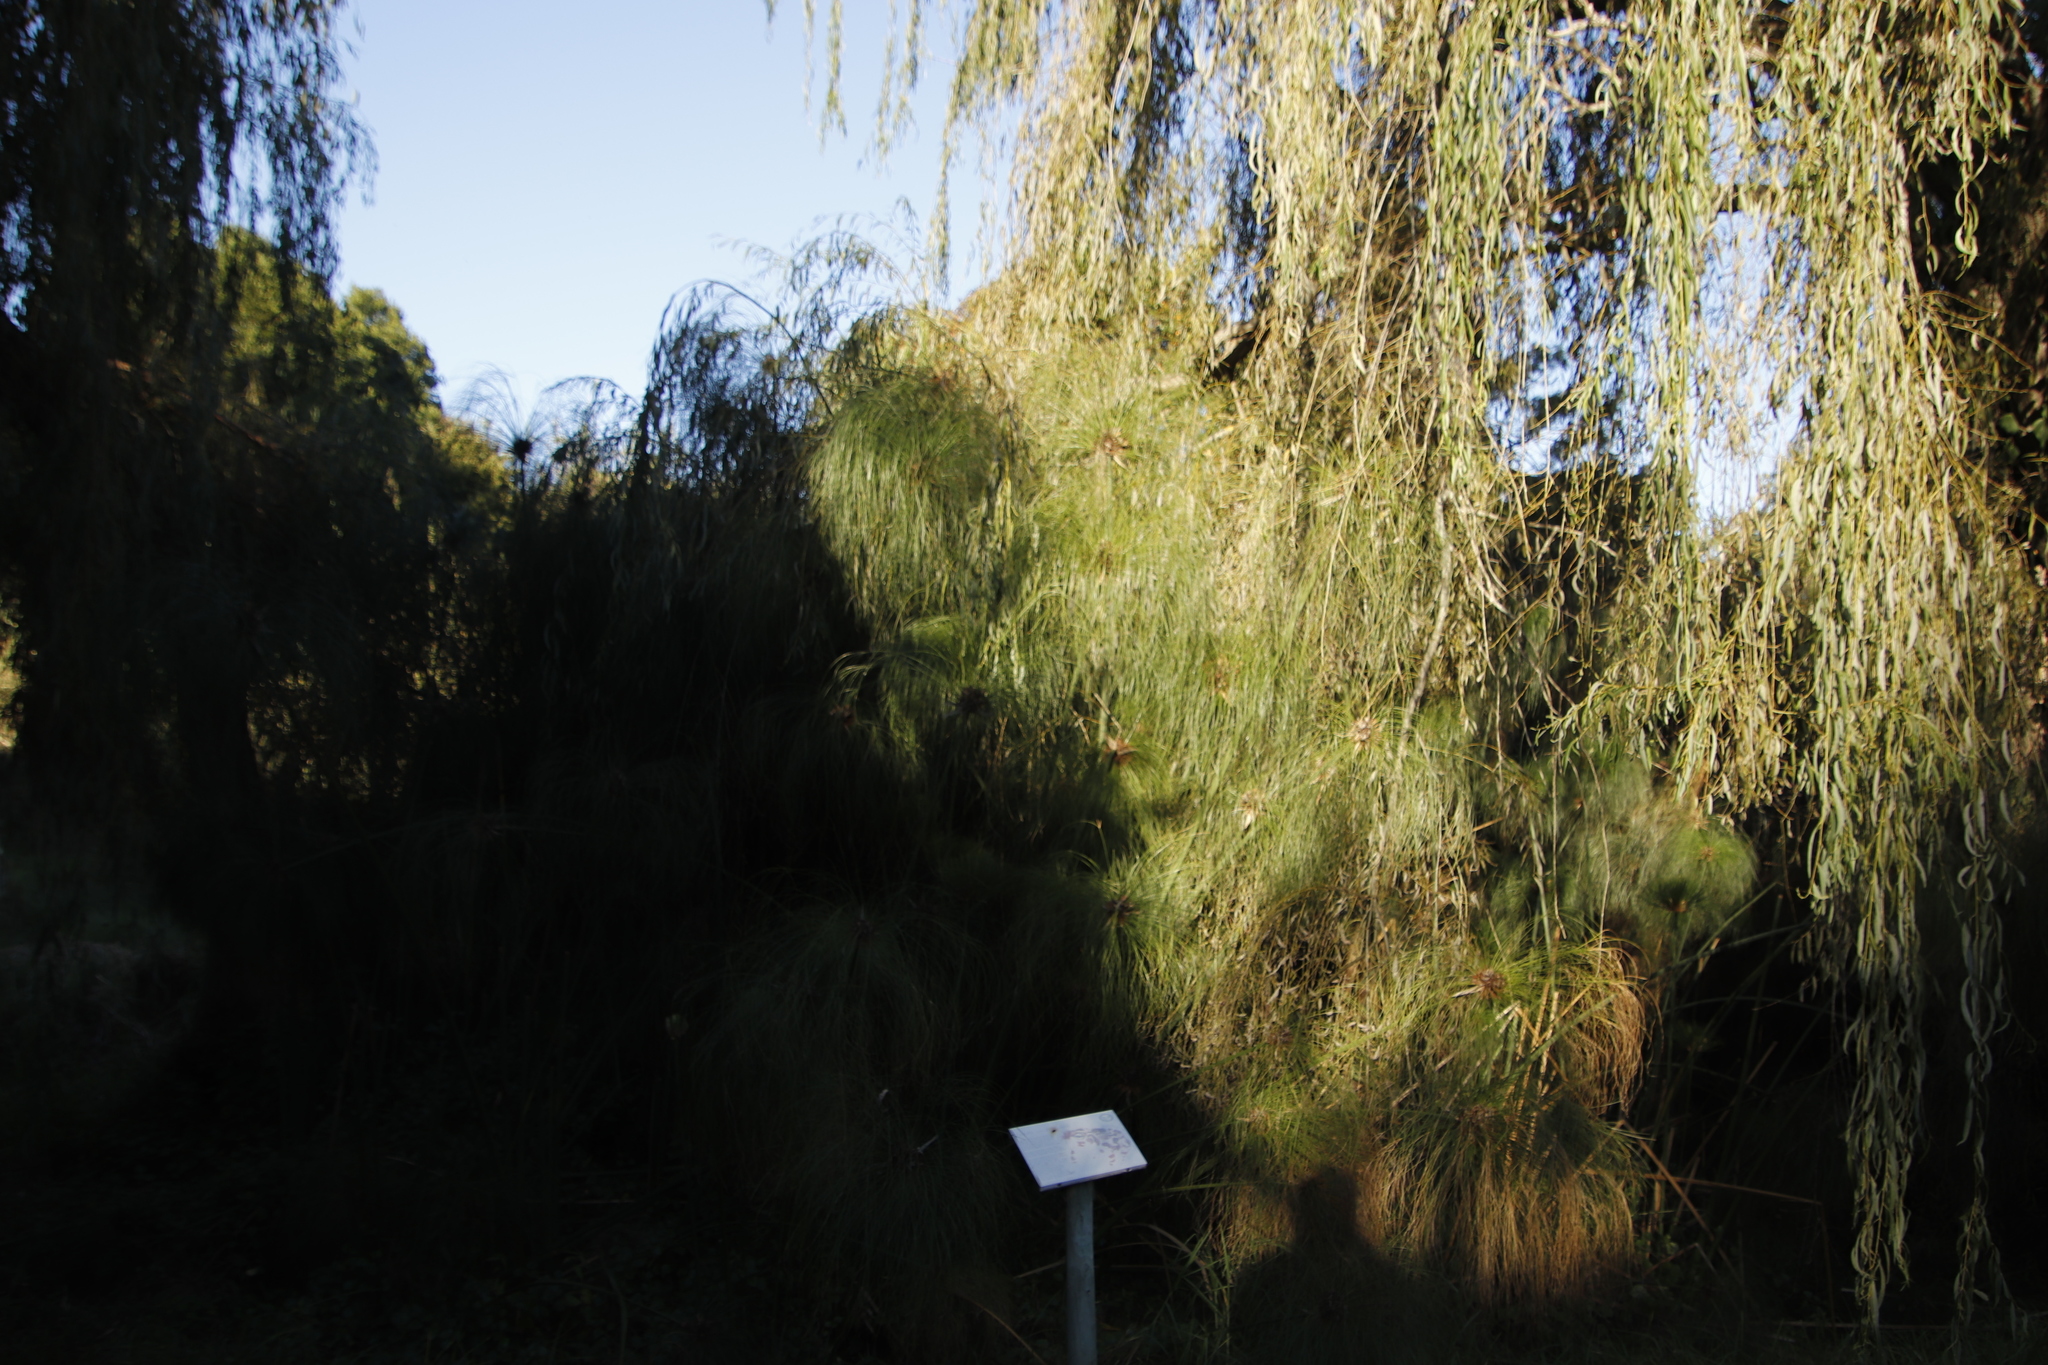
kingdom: Plantae
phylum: Tracheophyta
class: Magnoliopsida
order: Malpighiales
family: Salicaceae
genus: Salix
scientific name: Salix babylonica
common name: Weeping willow
